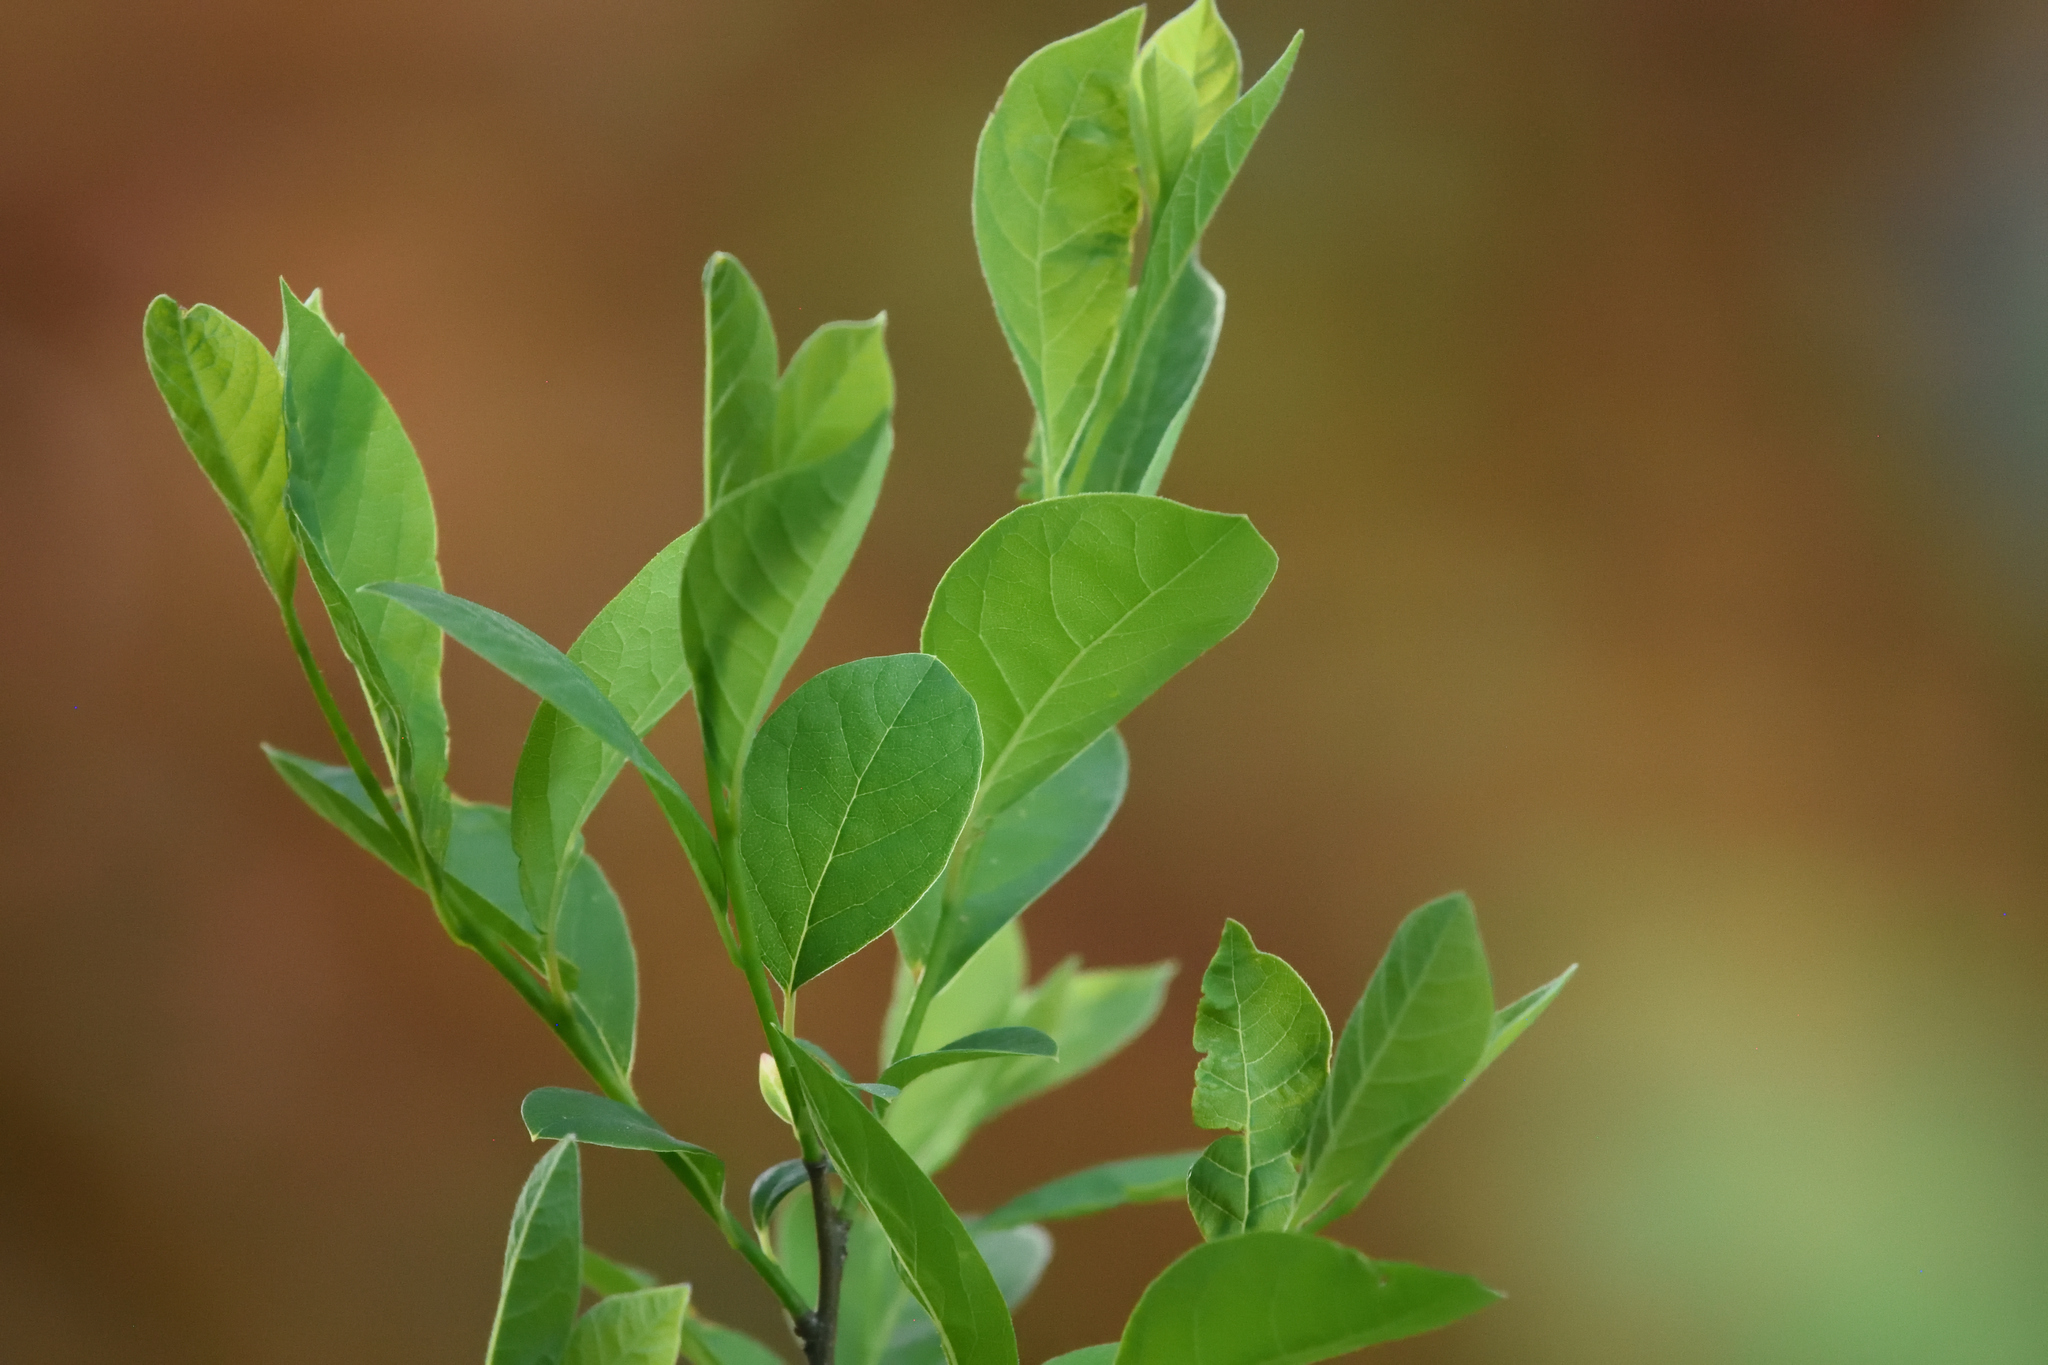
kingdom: Plantae
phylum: Tracheophyta
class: Magnoliopsida
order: Laurales
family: Lauraceae
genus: Lindera
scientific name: Lindera benzoin
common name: Spicebush
